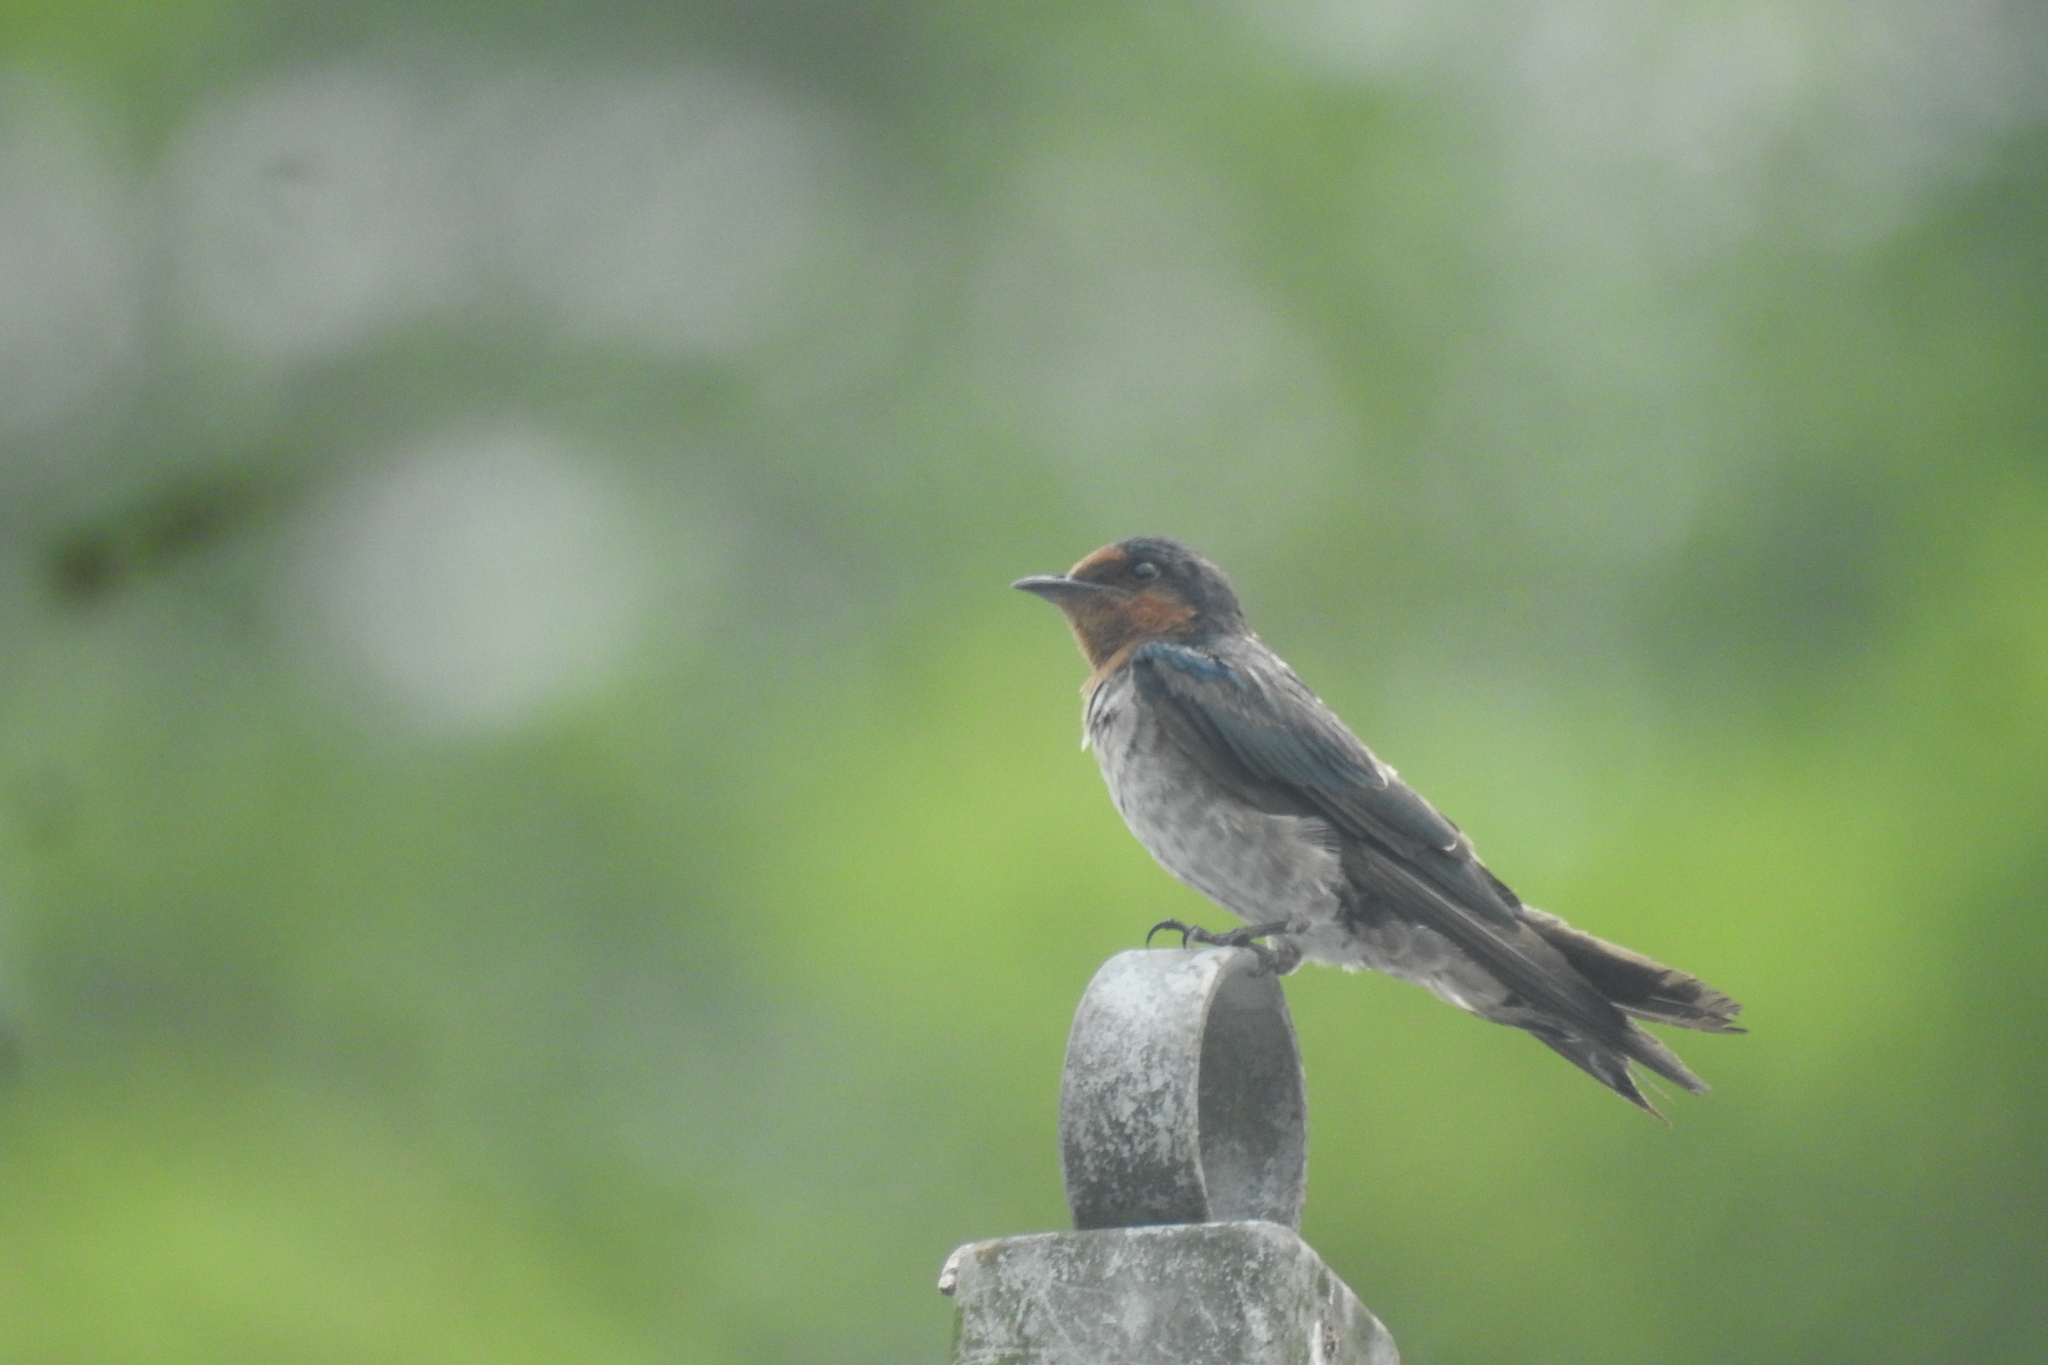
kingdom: Animalia
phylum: Chordata
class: Aves
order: Passeriformes
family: Hirundinidae
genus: Hirundo
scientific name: Hirundo tahitica
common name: Pacific swallow
